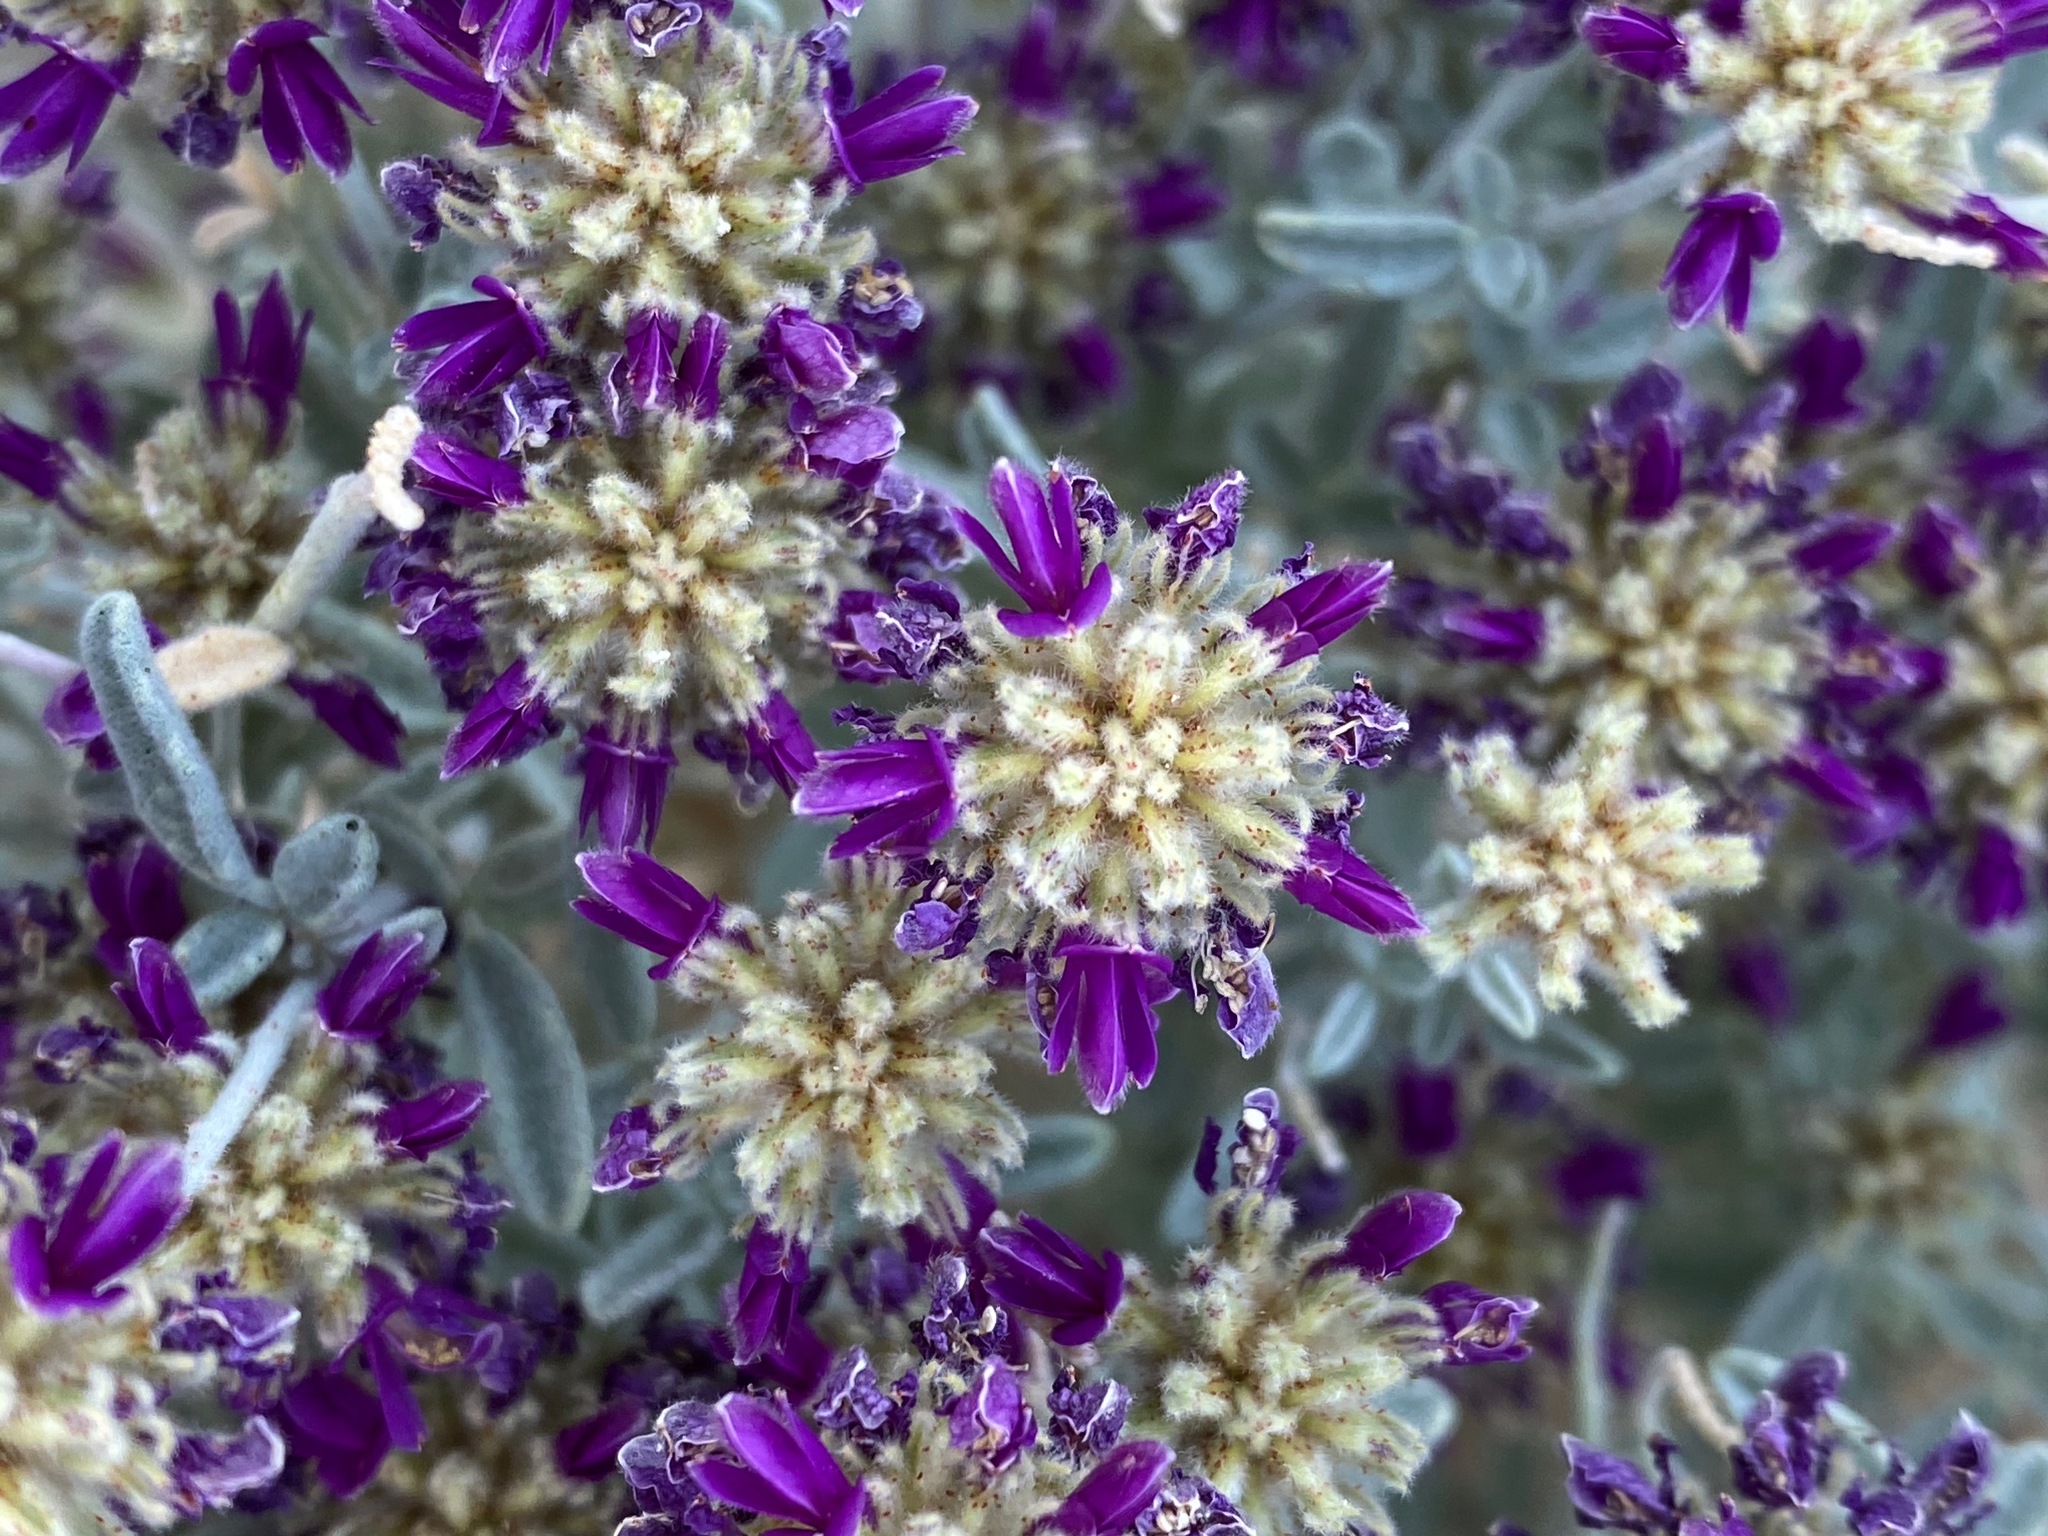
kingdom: Plantae
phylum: Tracheophyta
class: Magnoliopsida
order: Fabales
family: Fabaceae
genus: Psorothamnus
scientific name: Psorothamnus emoryi
